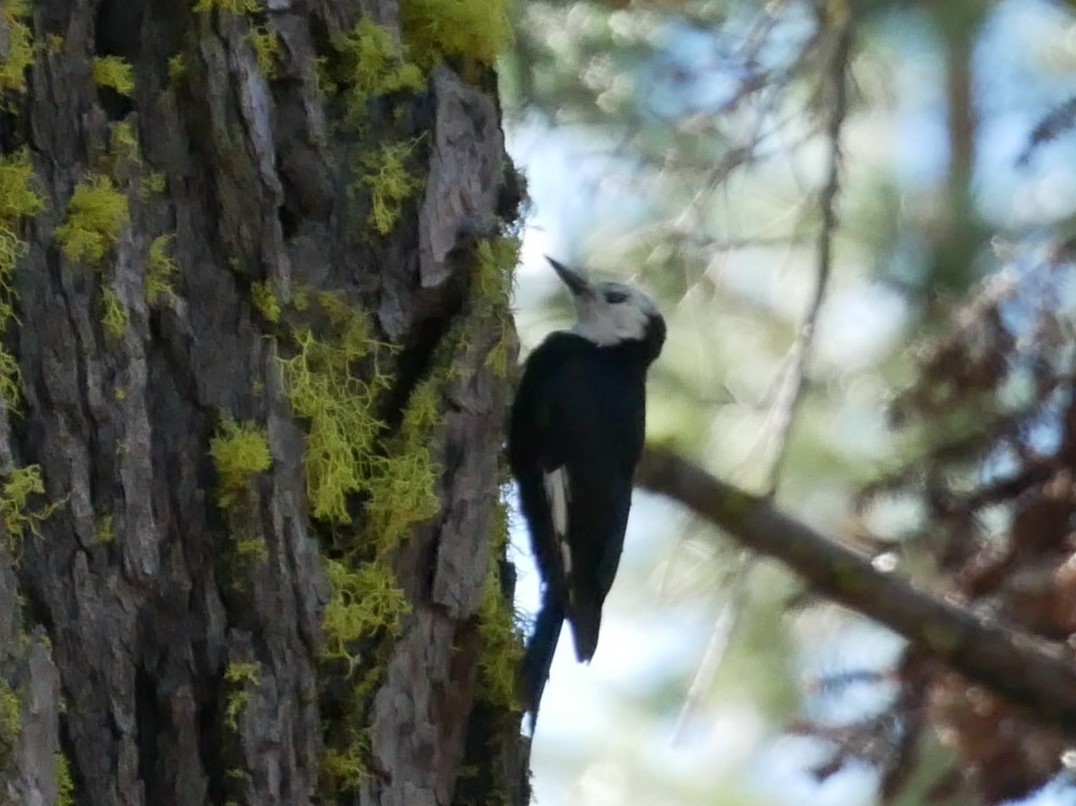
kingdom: Animalia
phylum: Chordata
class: Aves
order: Piciformes
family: Picidae
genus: Leuconotopicus
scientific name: Leuconotopicus albolarvatus
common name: White-headed woodpecker
